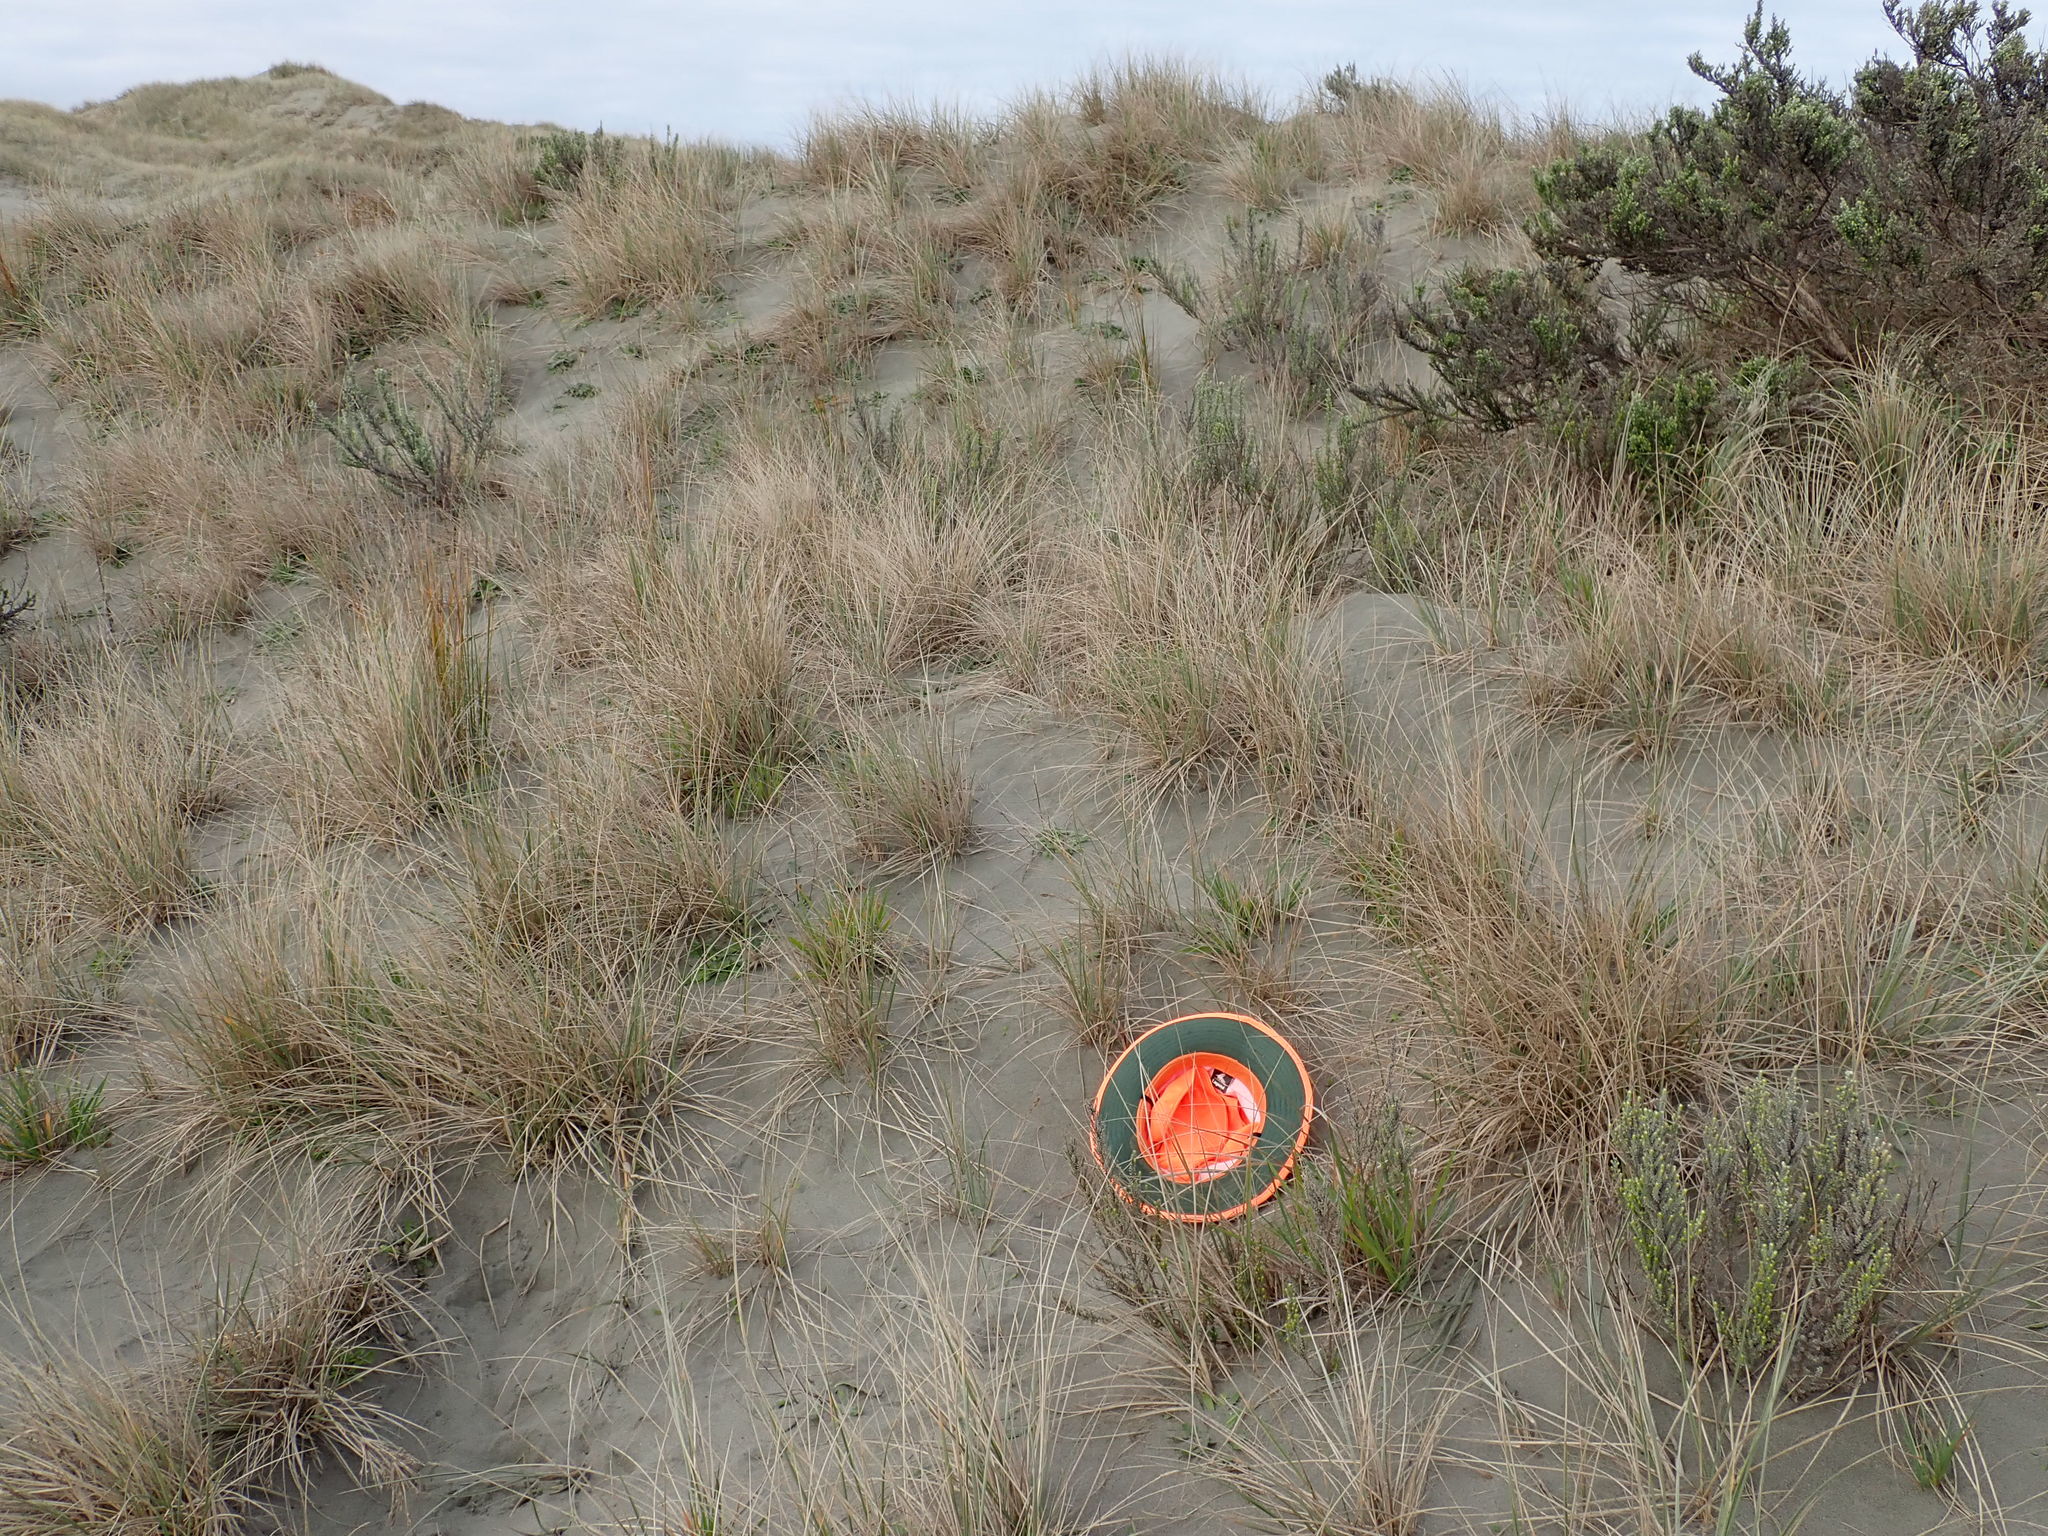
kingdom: Plantae
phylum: Tracheophyta
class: Liliopsida
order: Poales
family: Poaceae
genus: Lachnagrostis
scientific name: Lachnagrostis billardierei
